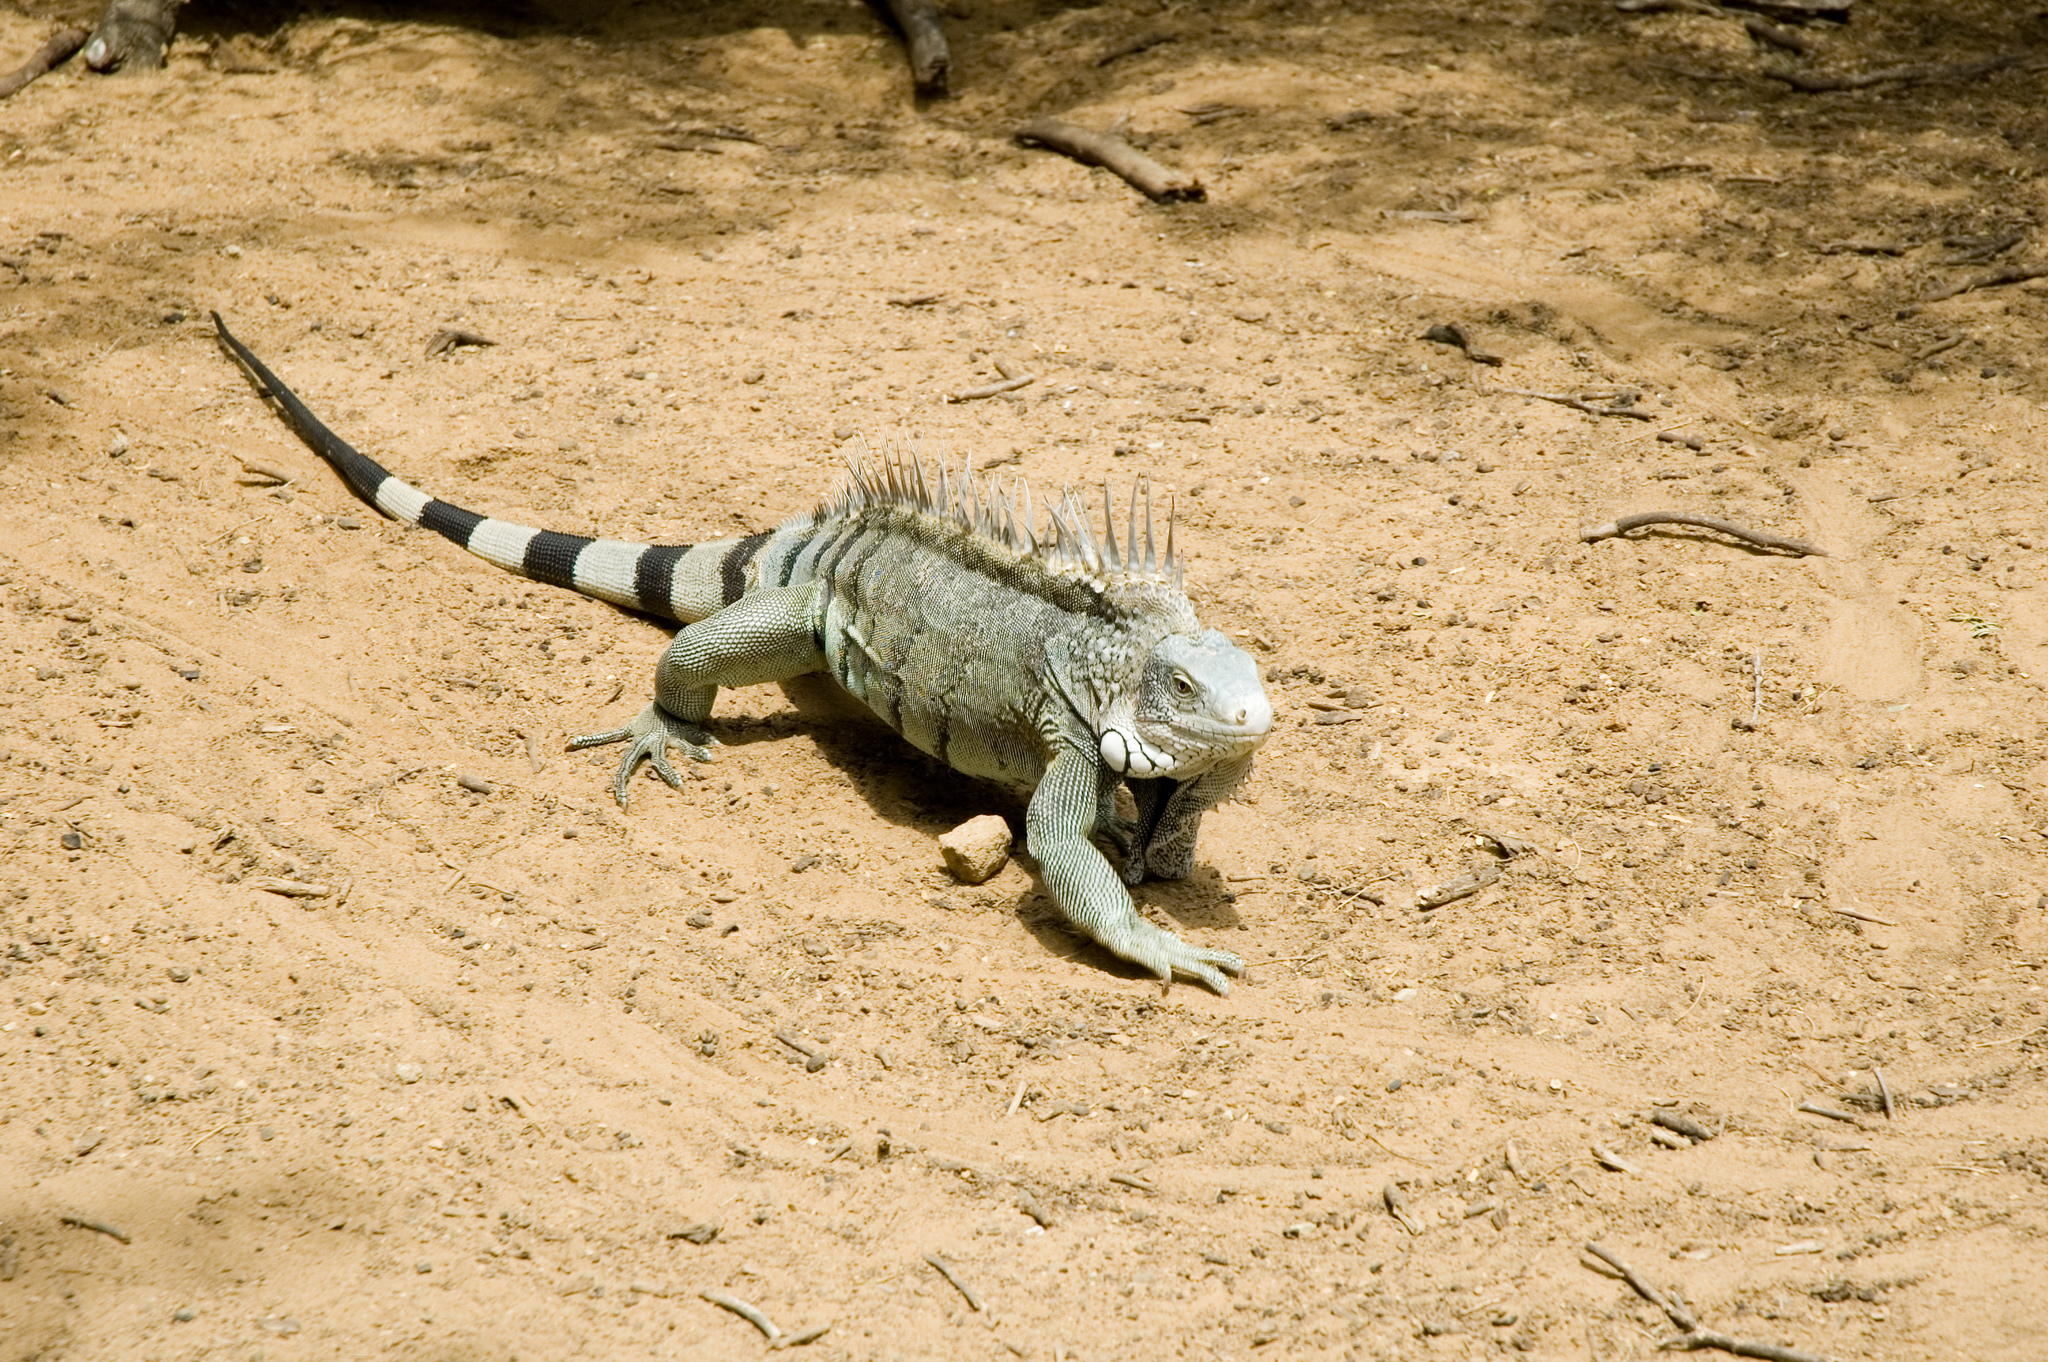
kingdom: Animalia
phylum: Chordata
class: Squamata
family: Iguanidae
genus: Iguana
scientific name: Iguana iguana
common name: Green iguana
